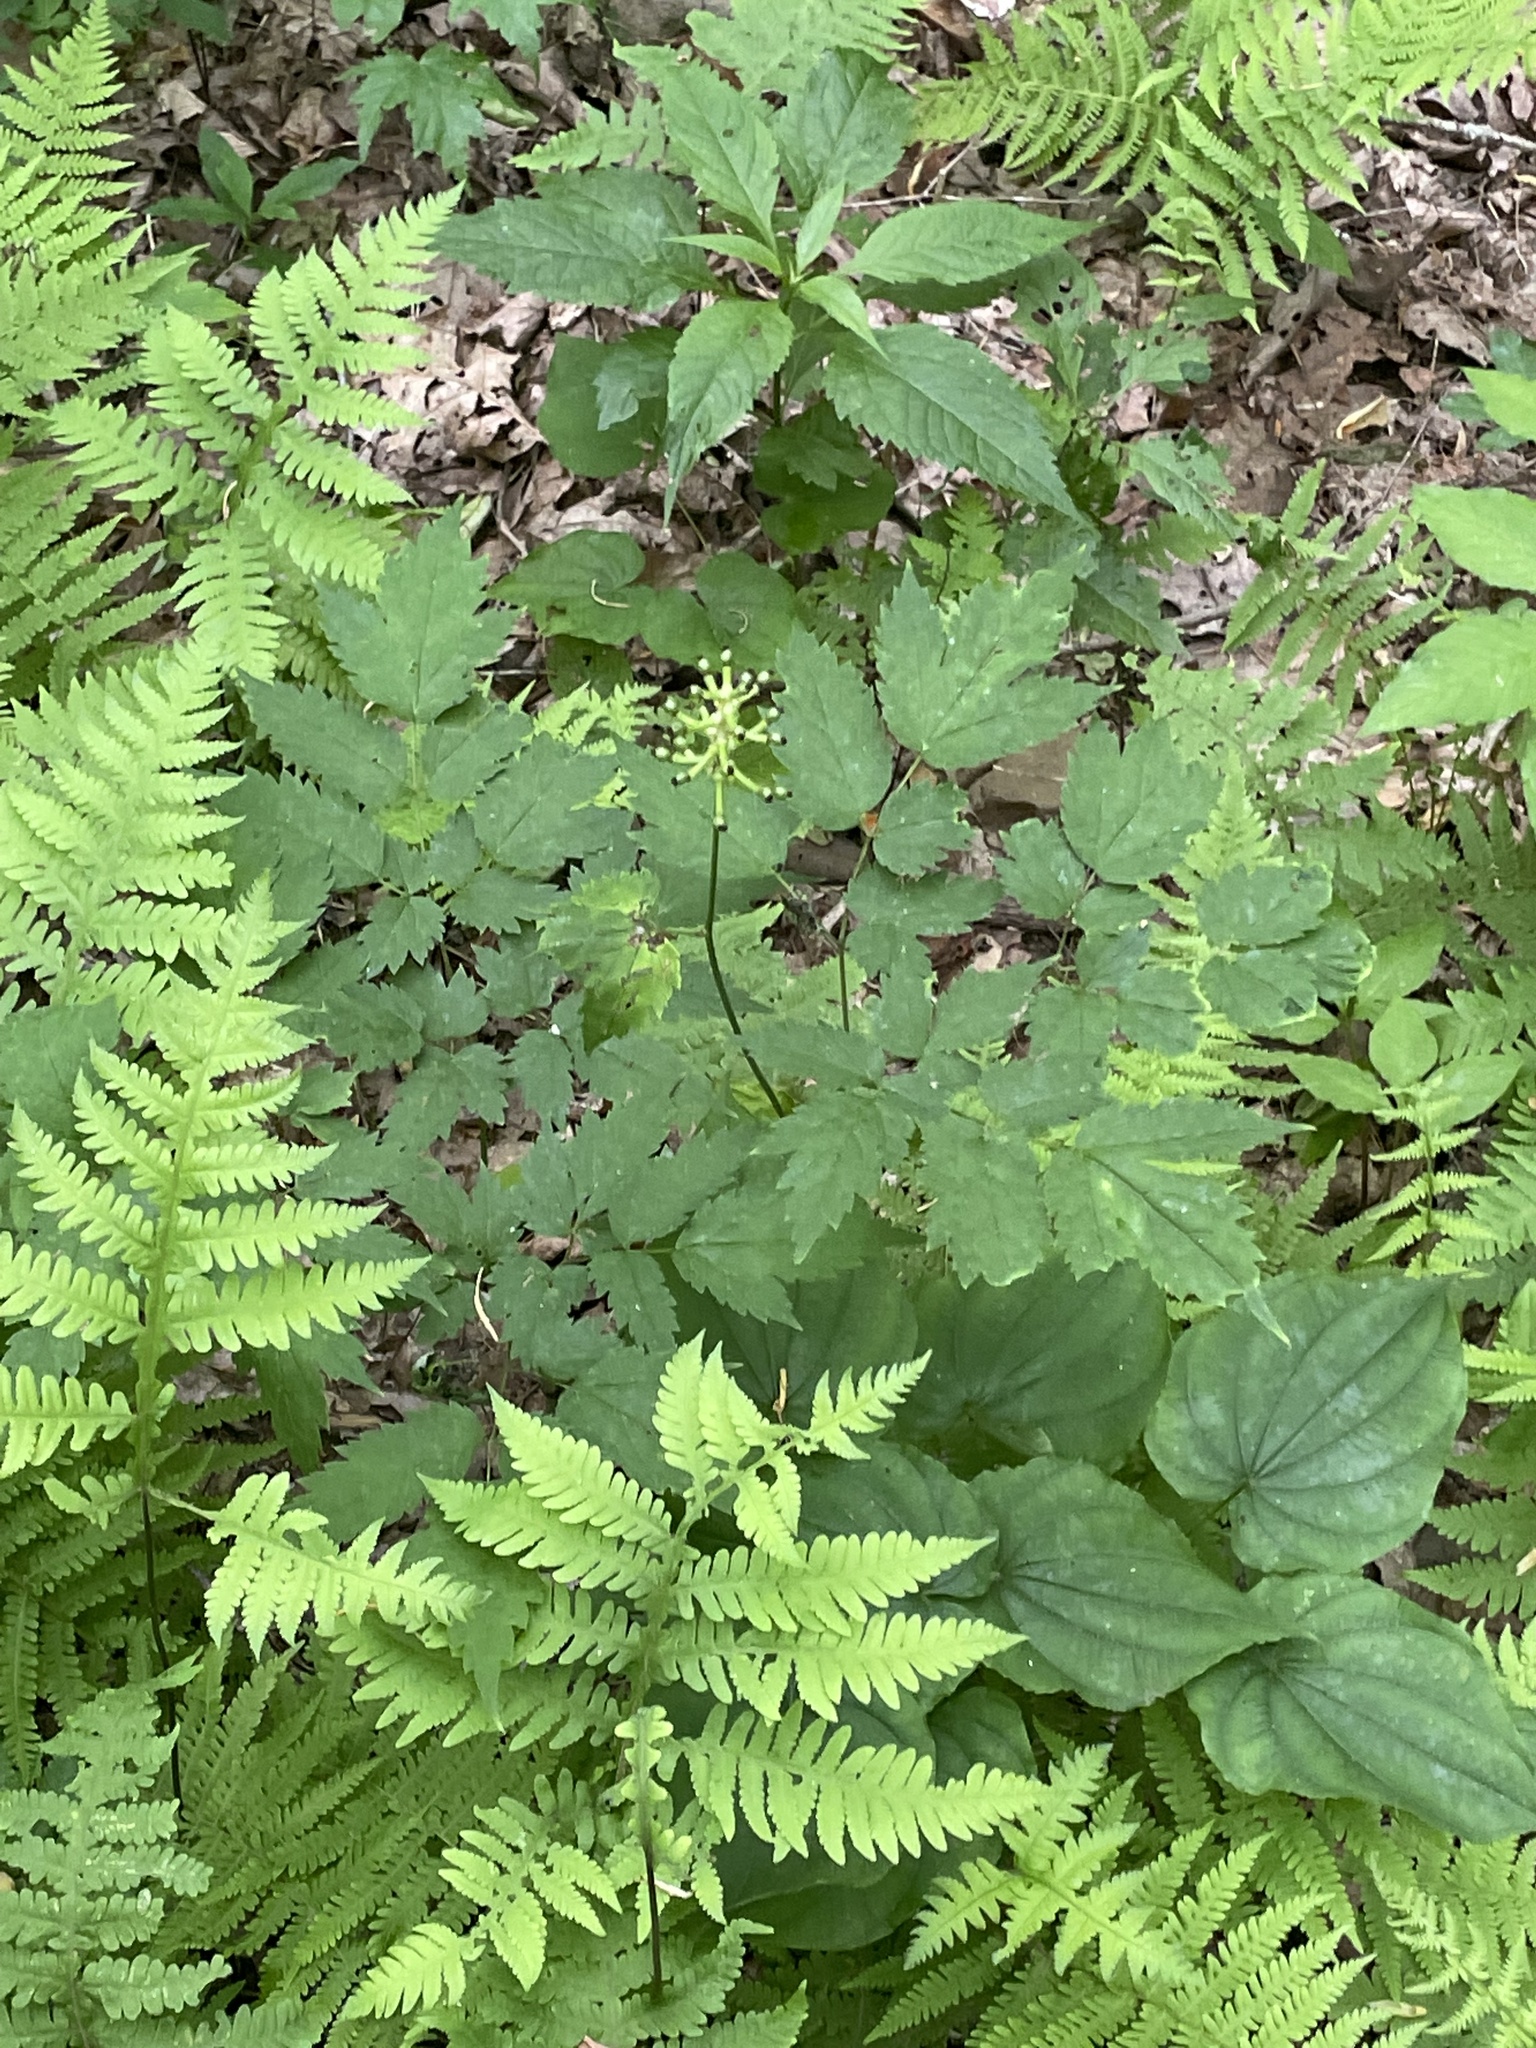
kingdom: Plantae
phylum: Tracheophyta
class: Magnoliopsida
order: Ranunculales
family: Ranunculaceae
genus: Actaea
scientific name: Actaea pachypoda
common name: Doll's-eyes
